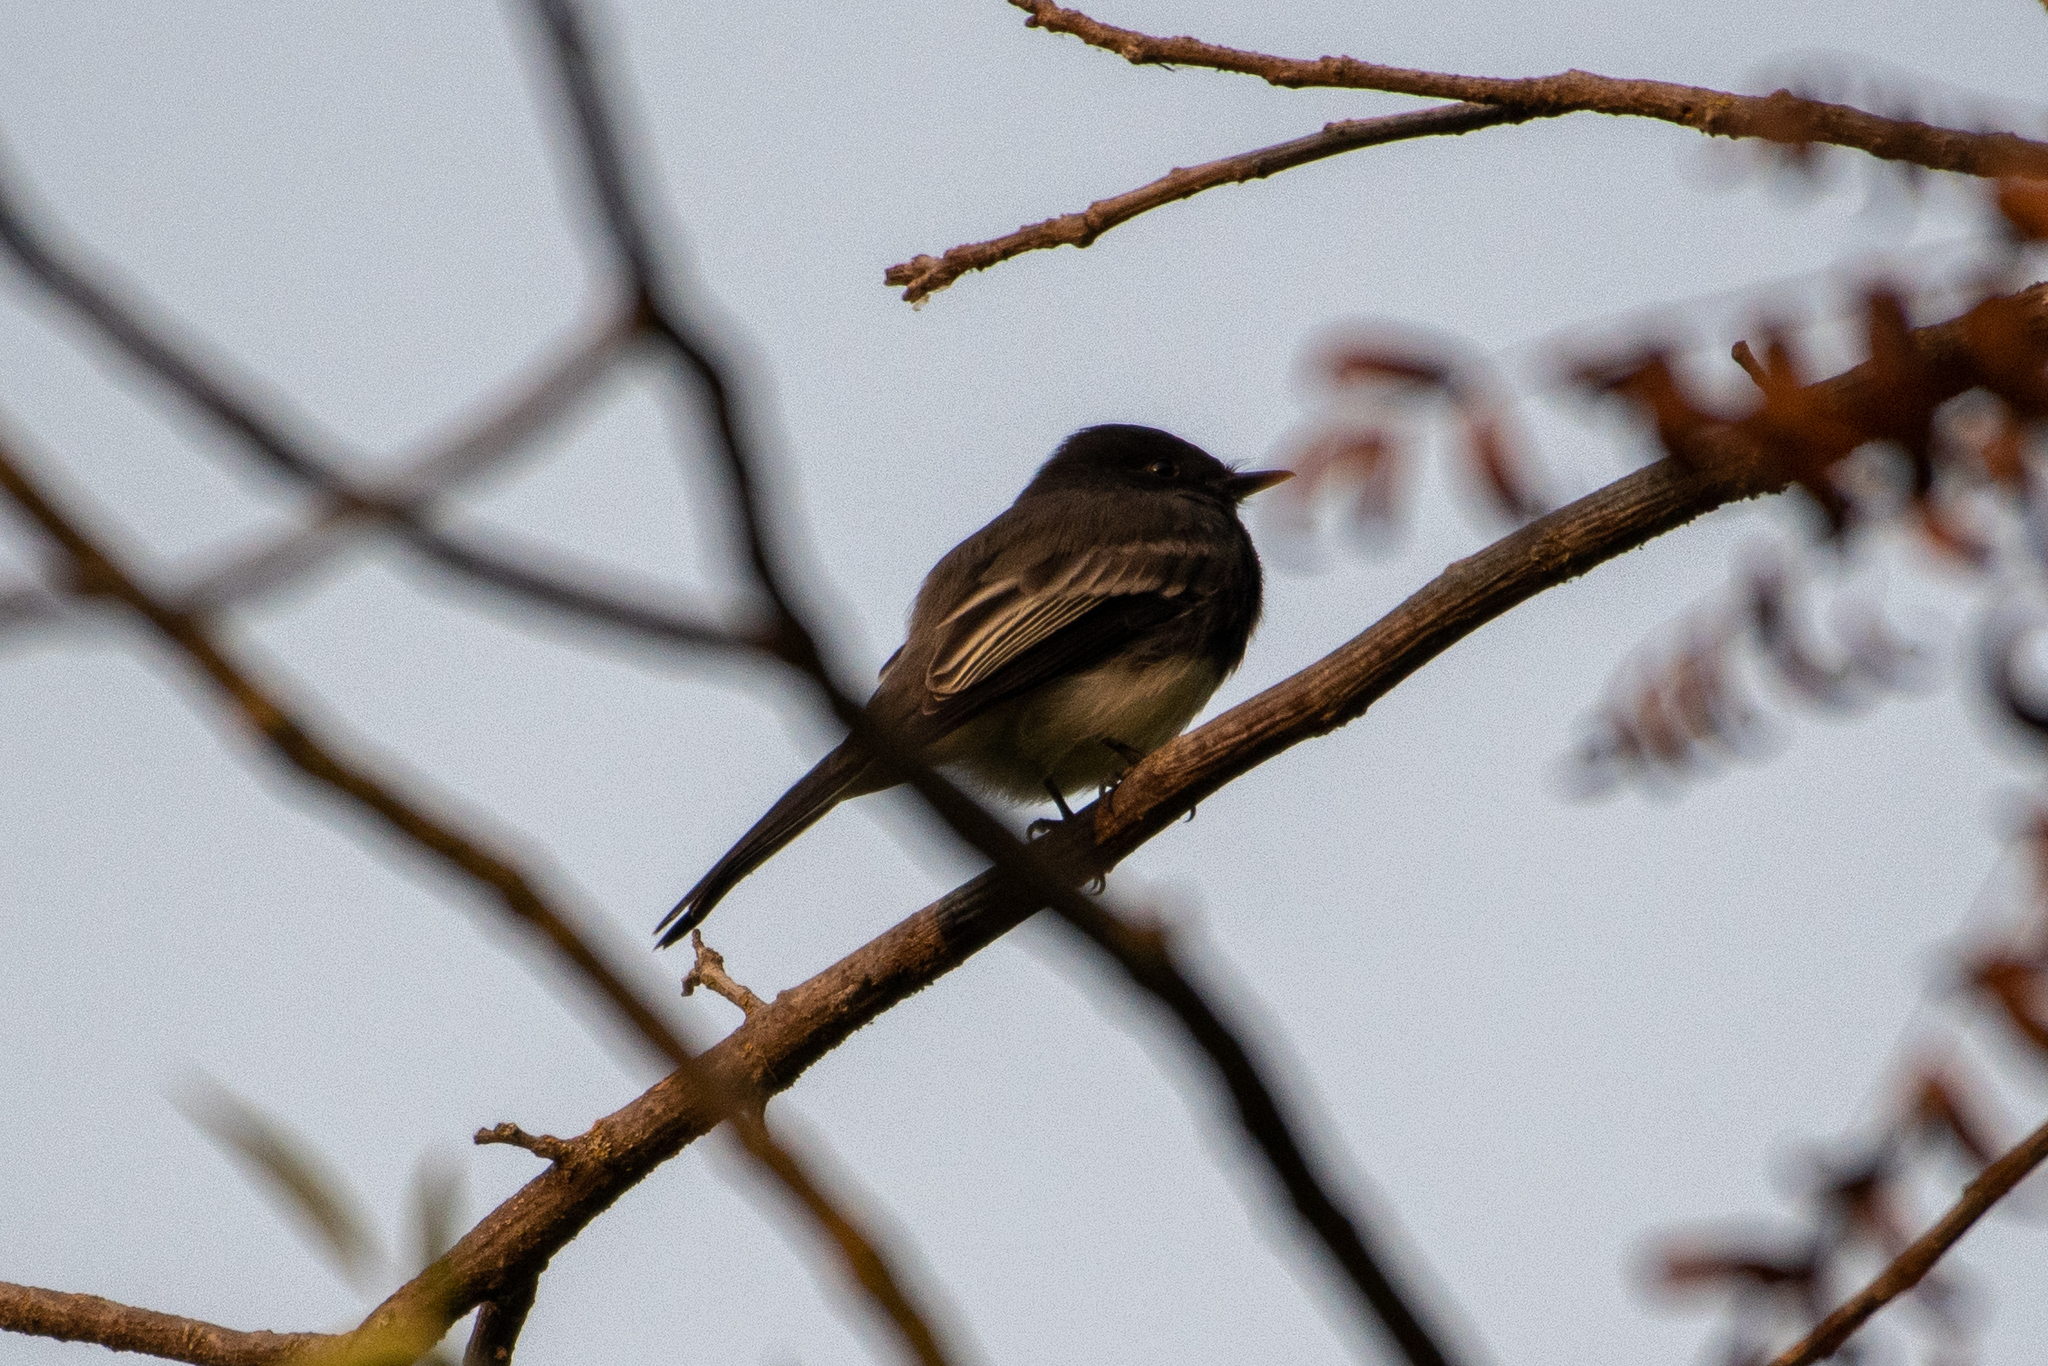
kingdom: Animalia
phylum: Chordata
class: Aves
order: Passeriformes
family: Tyrannidae
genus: Sayornis
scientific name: Sayornis nigricans
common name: Black phoebe
